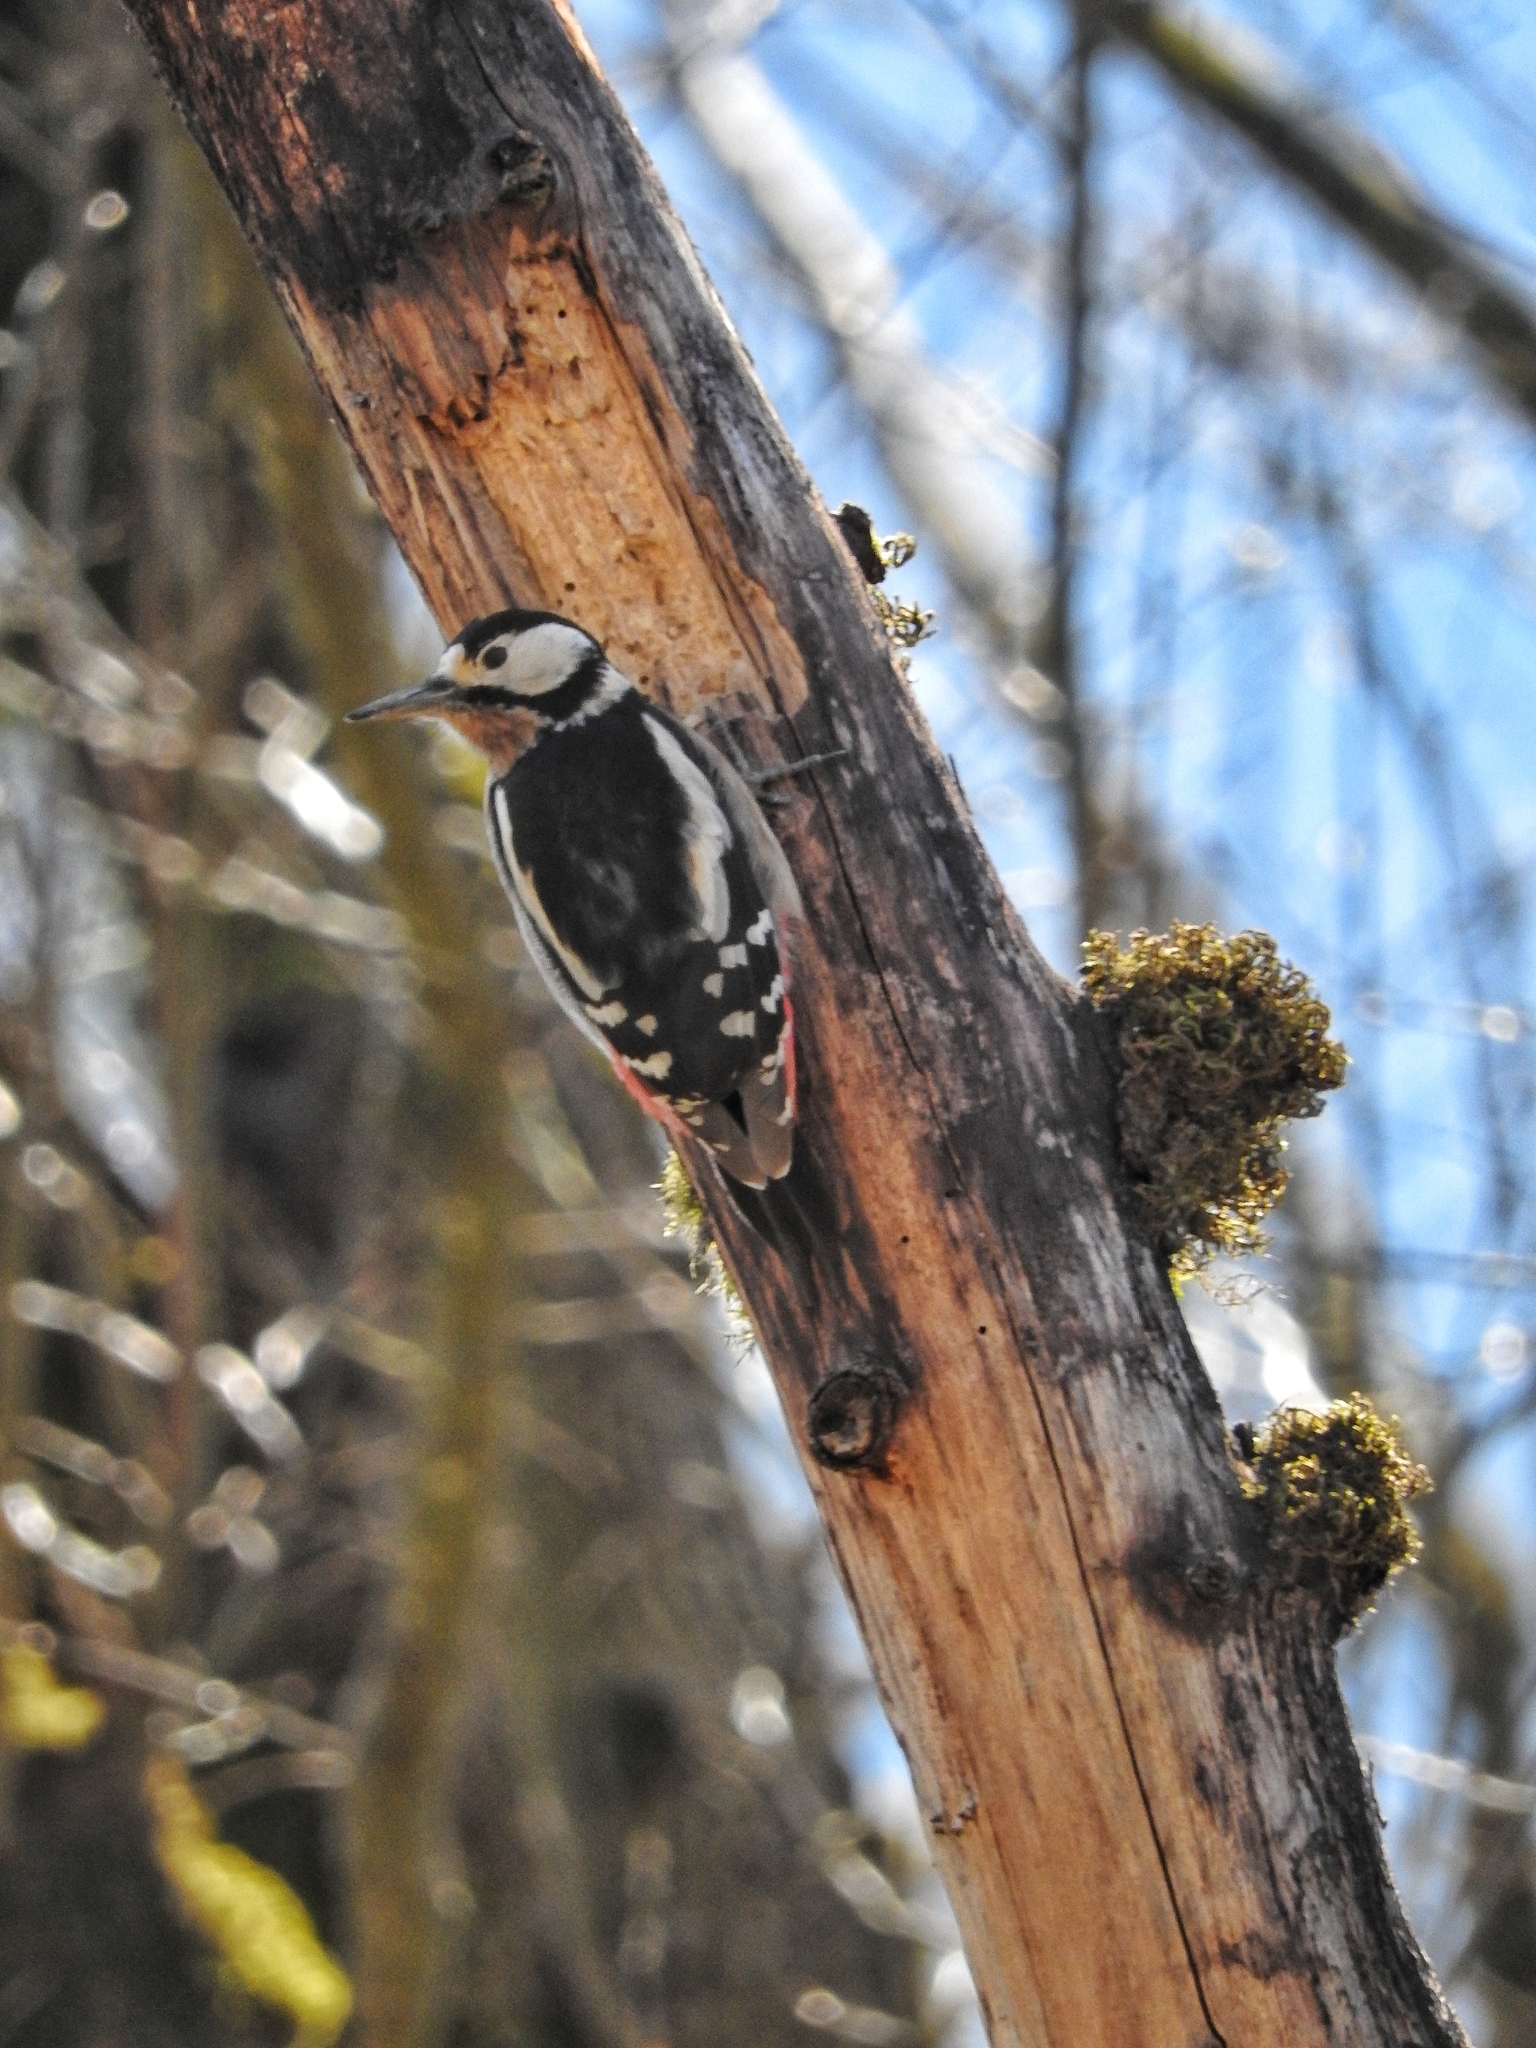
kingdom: Animalia
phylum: Chordata
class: Aves
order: Piciformes
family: Picidae
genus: Dendrocopos
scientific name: Dendrocopos major
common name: Great spotted woodpecker
